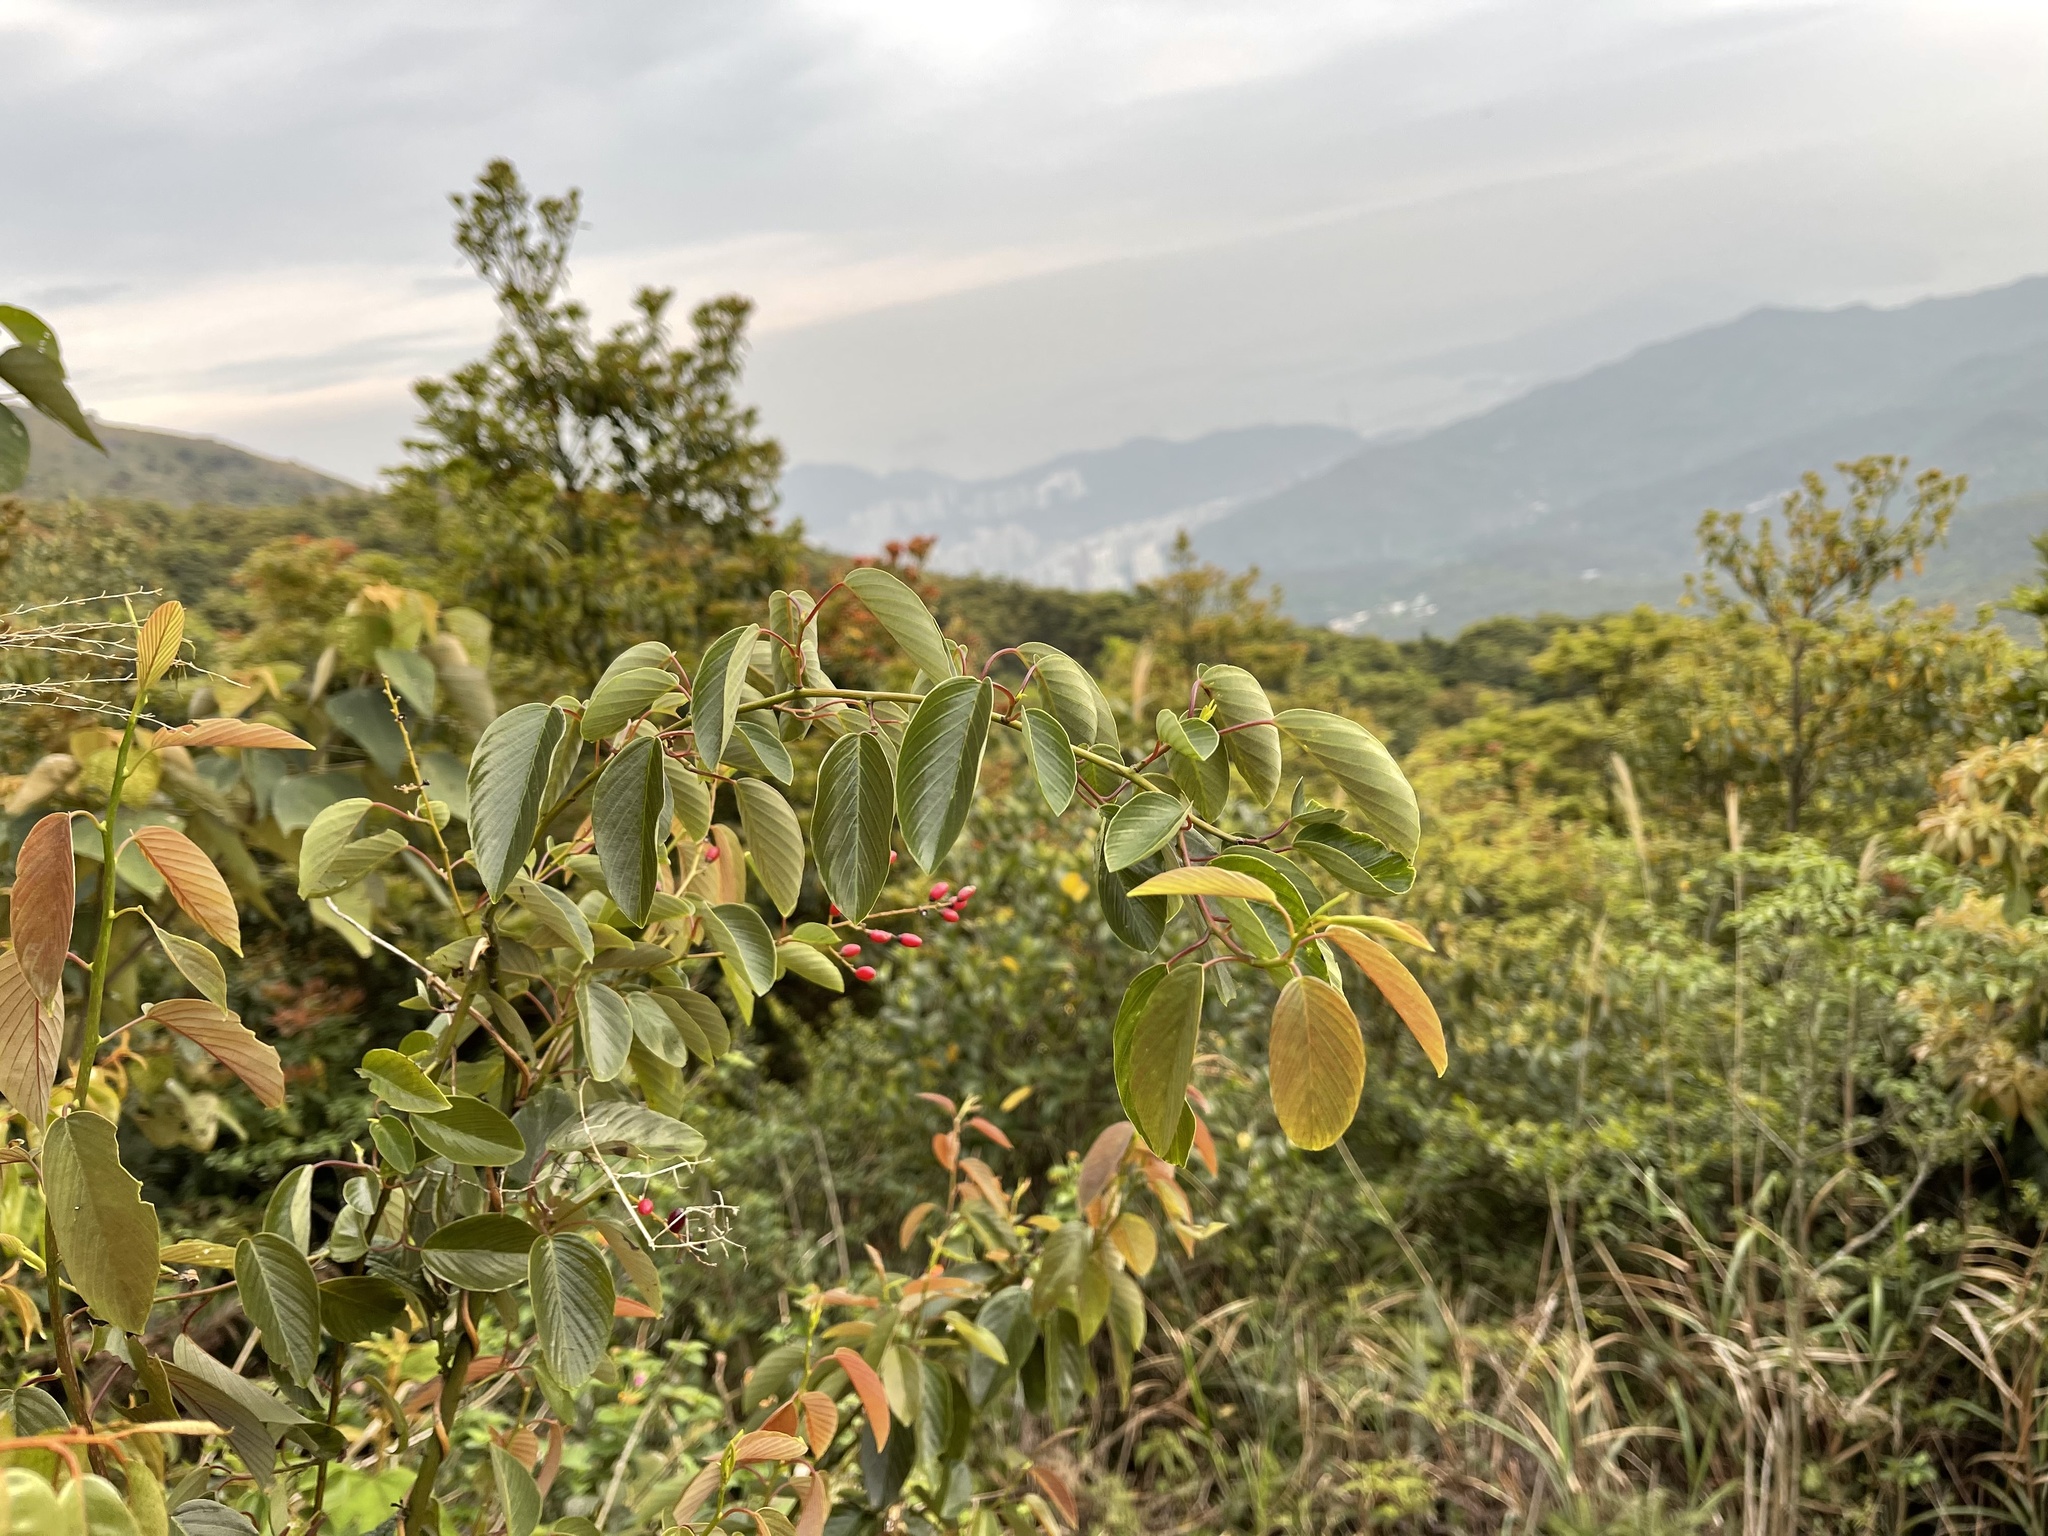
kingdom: Plantae
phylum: Tracheophyta
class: Magnoliopsida
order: Rosales
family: Rhamnaceae
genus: Berchemia
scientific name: Berchemia floribunda
